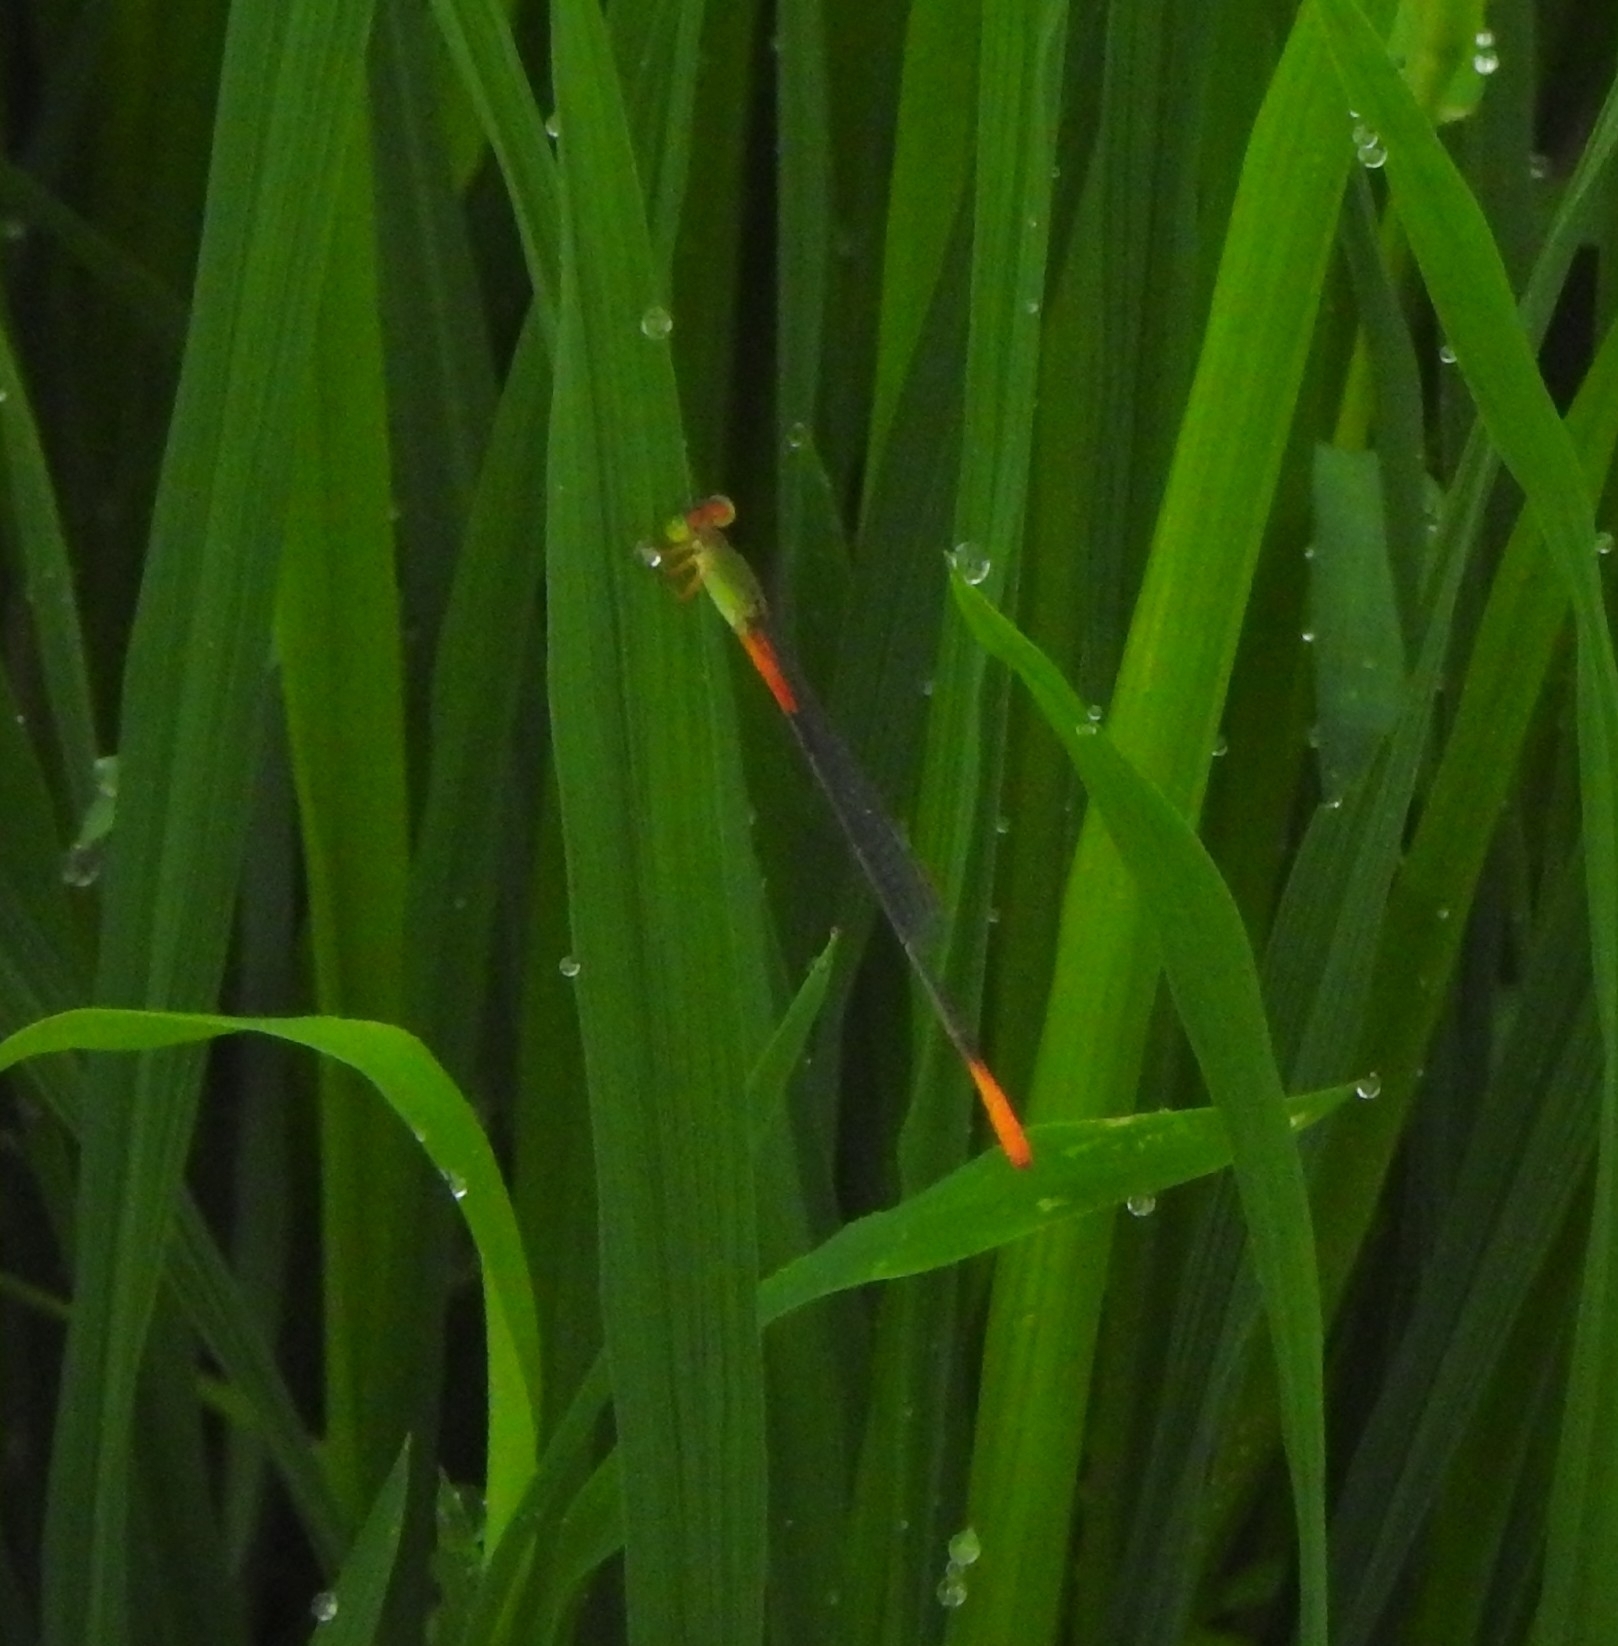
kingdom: Animalia
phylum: Arthropoda
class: Insecta
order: Odonata
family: Coenagrionidae
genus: Ceriagrion
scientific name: Ceriagrion cerinorubellum
